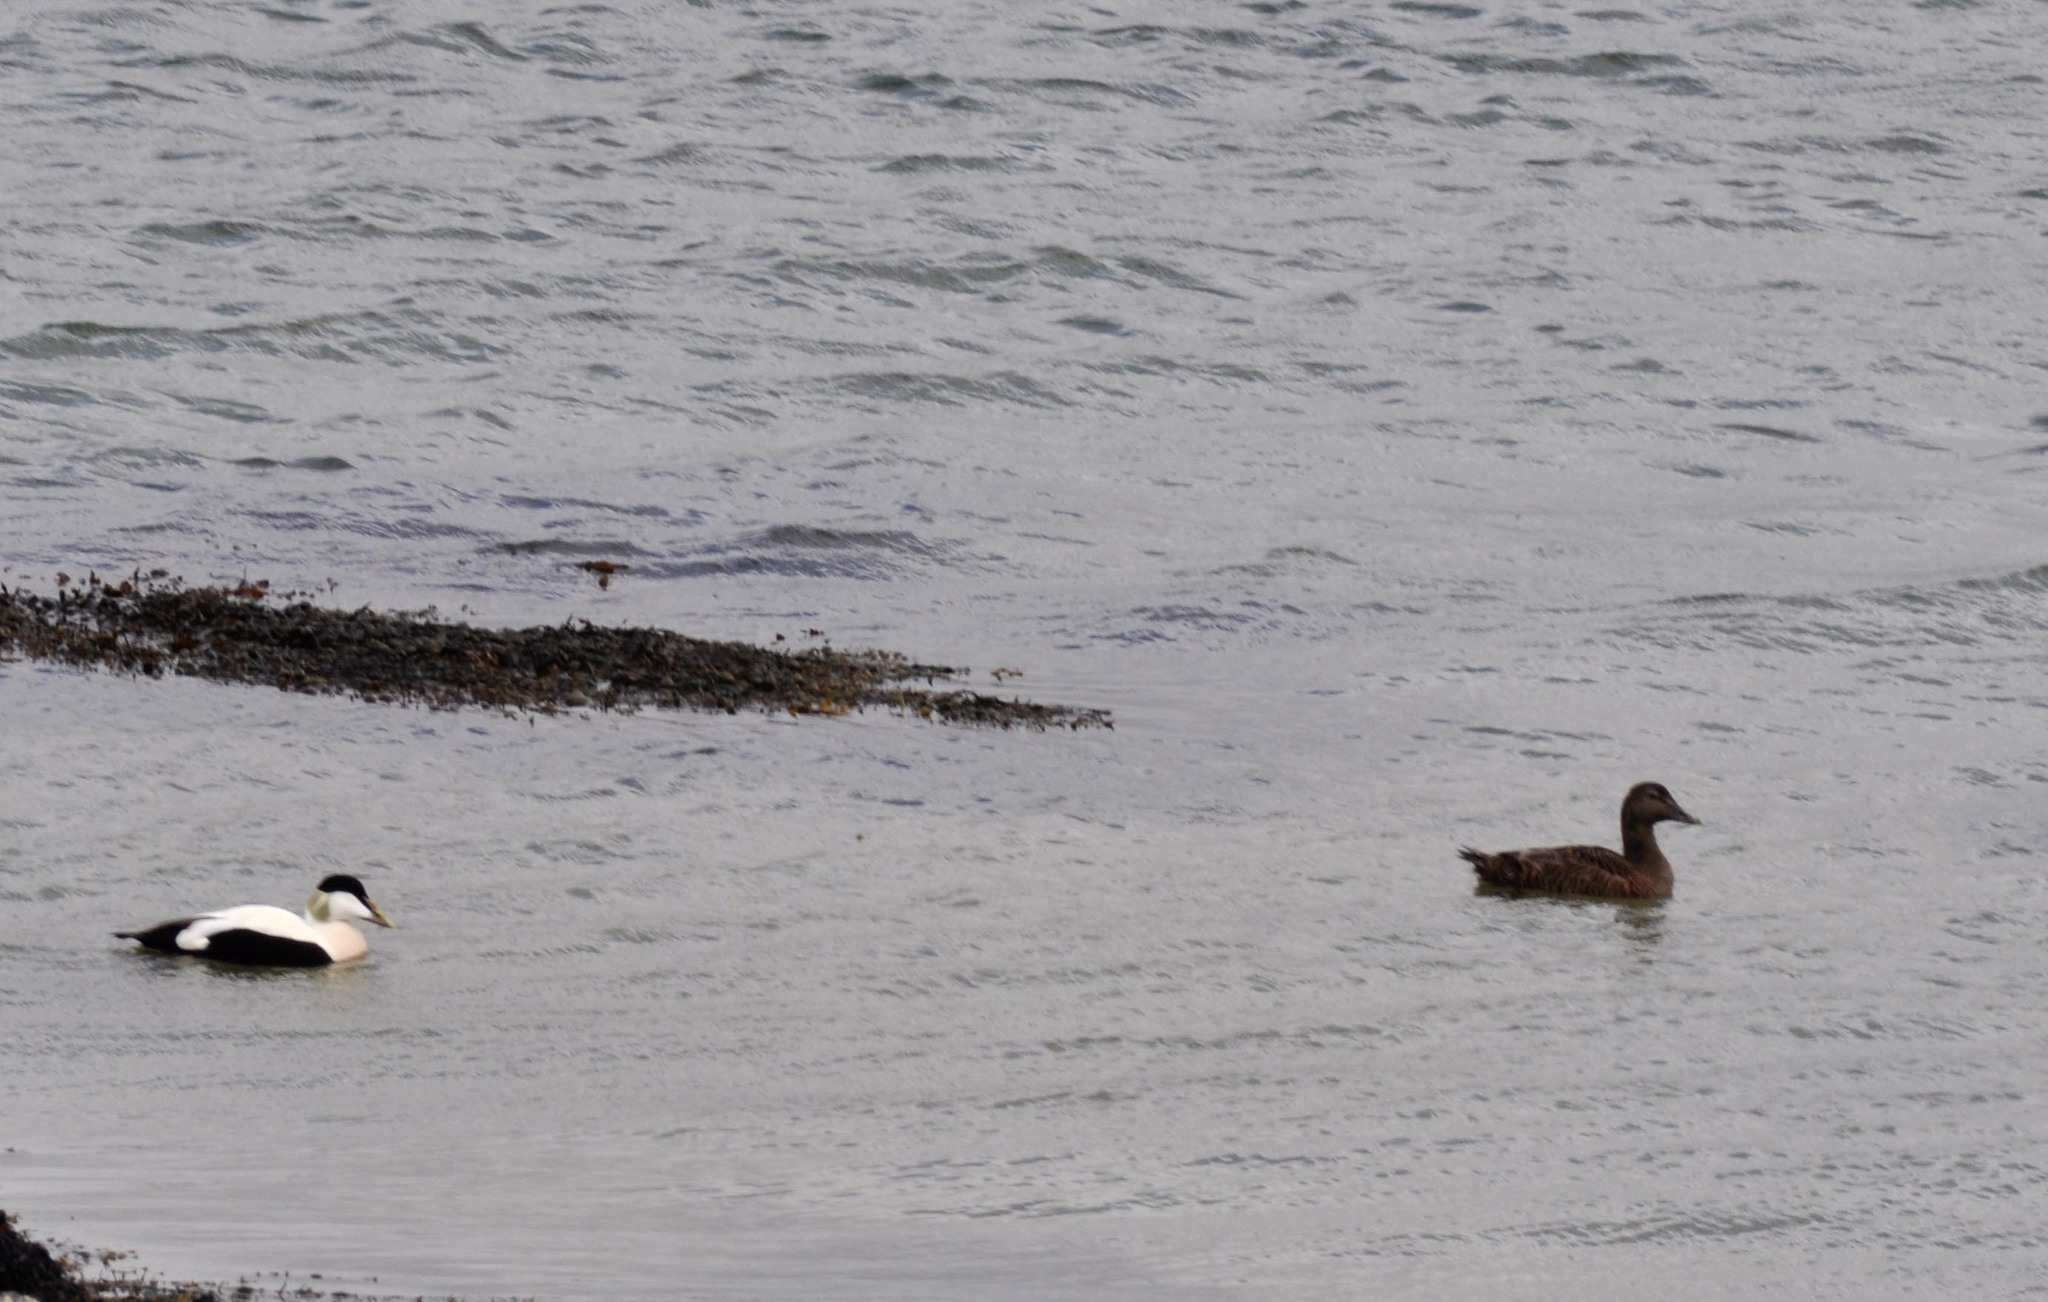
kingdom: Animalia
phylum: Chordata
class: Aves
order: Anseriformes
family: Anatidae
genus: Somateria
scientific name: Somateria mollissima
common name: Common eider
